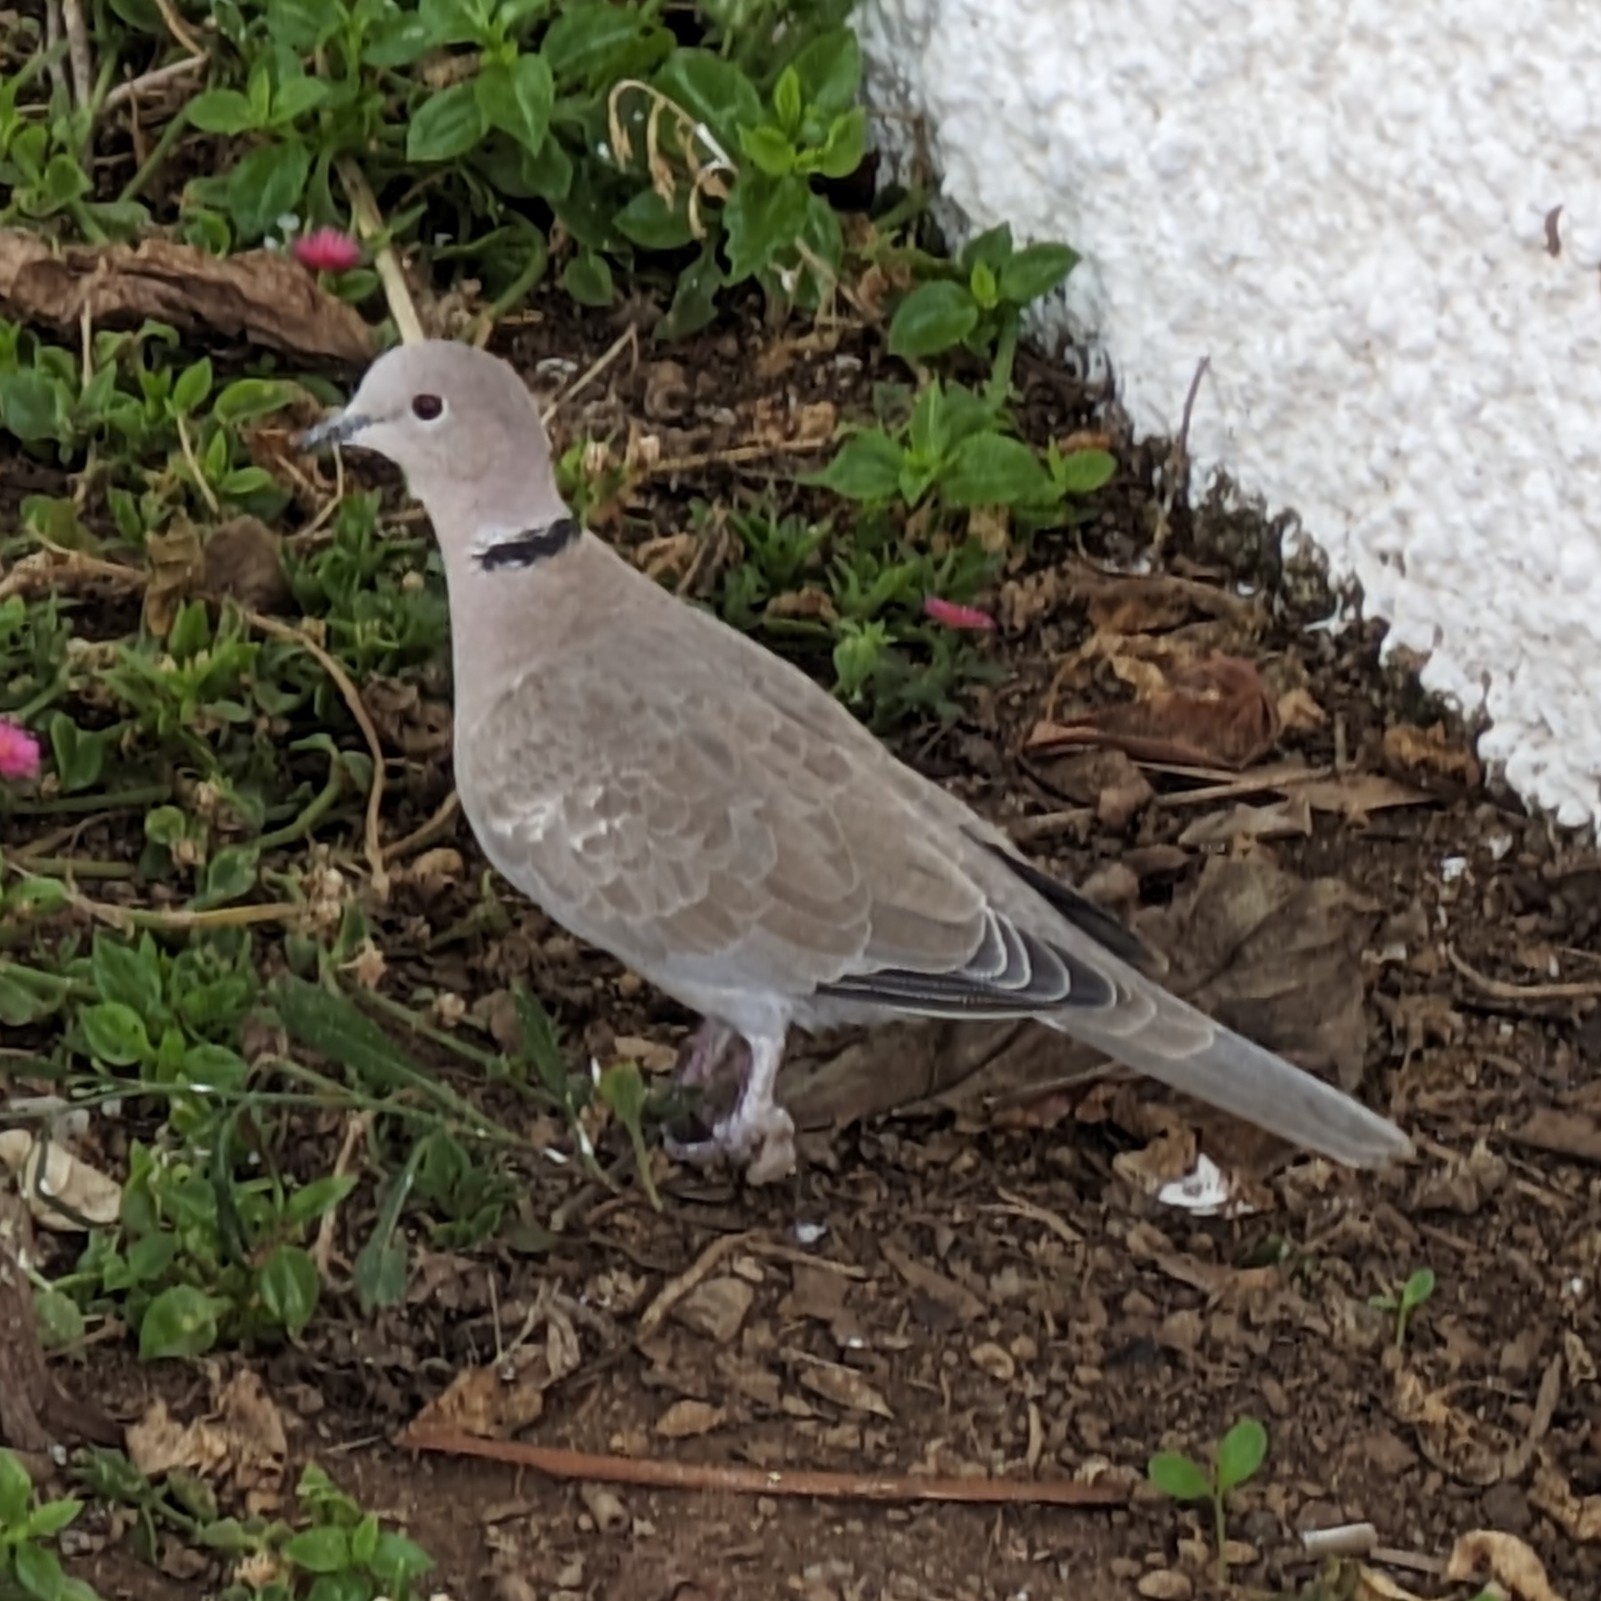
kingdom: Animalia
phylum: Chordata
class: Aves
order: Columbiformes
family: Columbidae
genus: Streptopelia
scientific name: Streptopelia decaocto
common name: Eurasian collared dove
